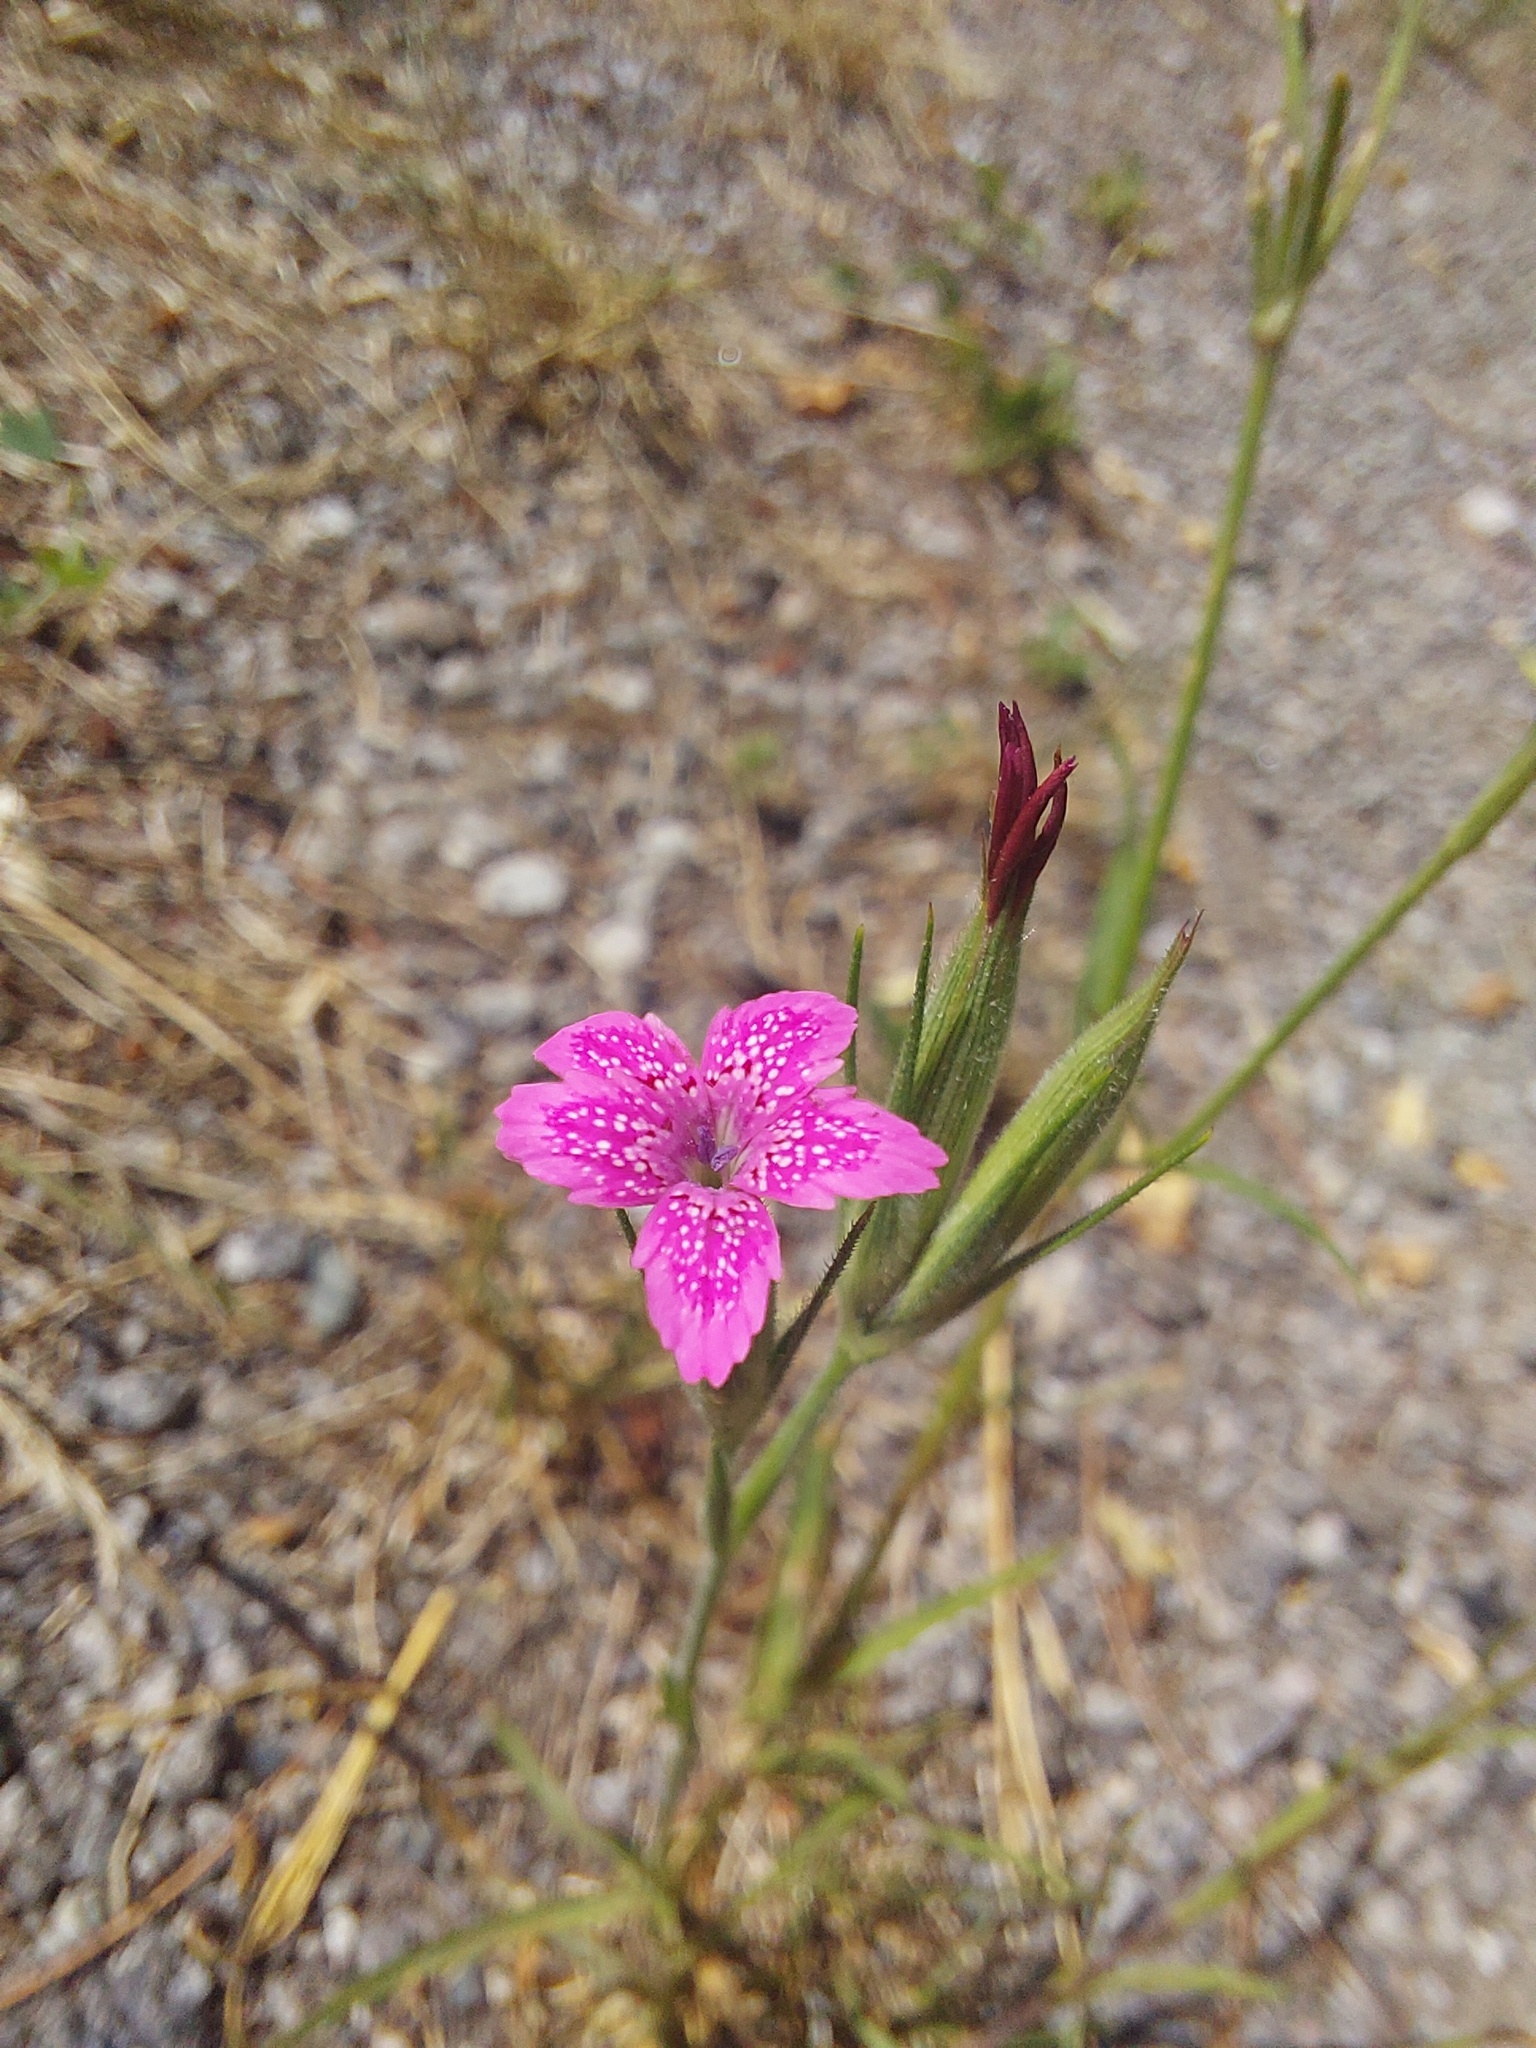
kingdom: Plantae
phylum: Tracheophyta
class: Magnoliopsida
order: Caryophyllales
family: Caryophyllaceae
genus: Dianthus
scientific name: Dianthus armeria
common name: Deptford pink
